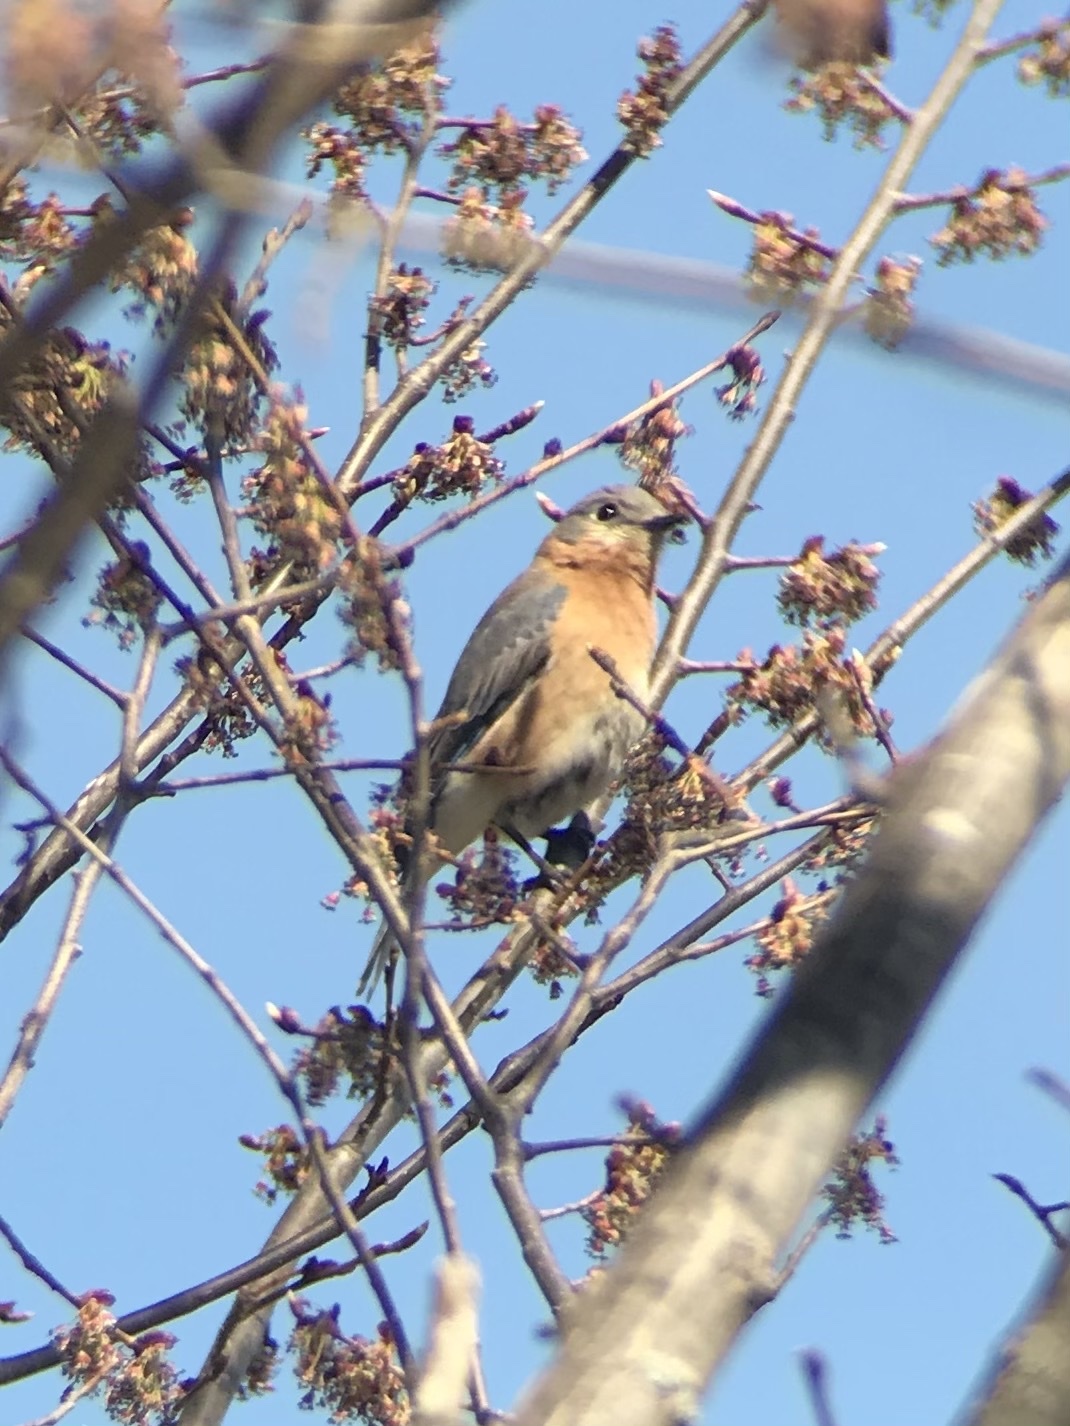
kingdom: Animalia
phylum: Chordata
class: Aves
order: Passeriformes
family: Turdidae
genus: Sialia
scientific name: Sialia sialis
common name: Eastern bluebird
